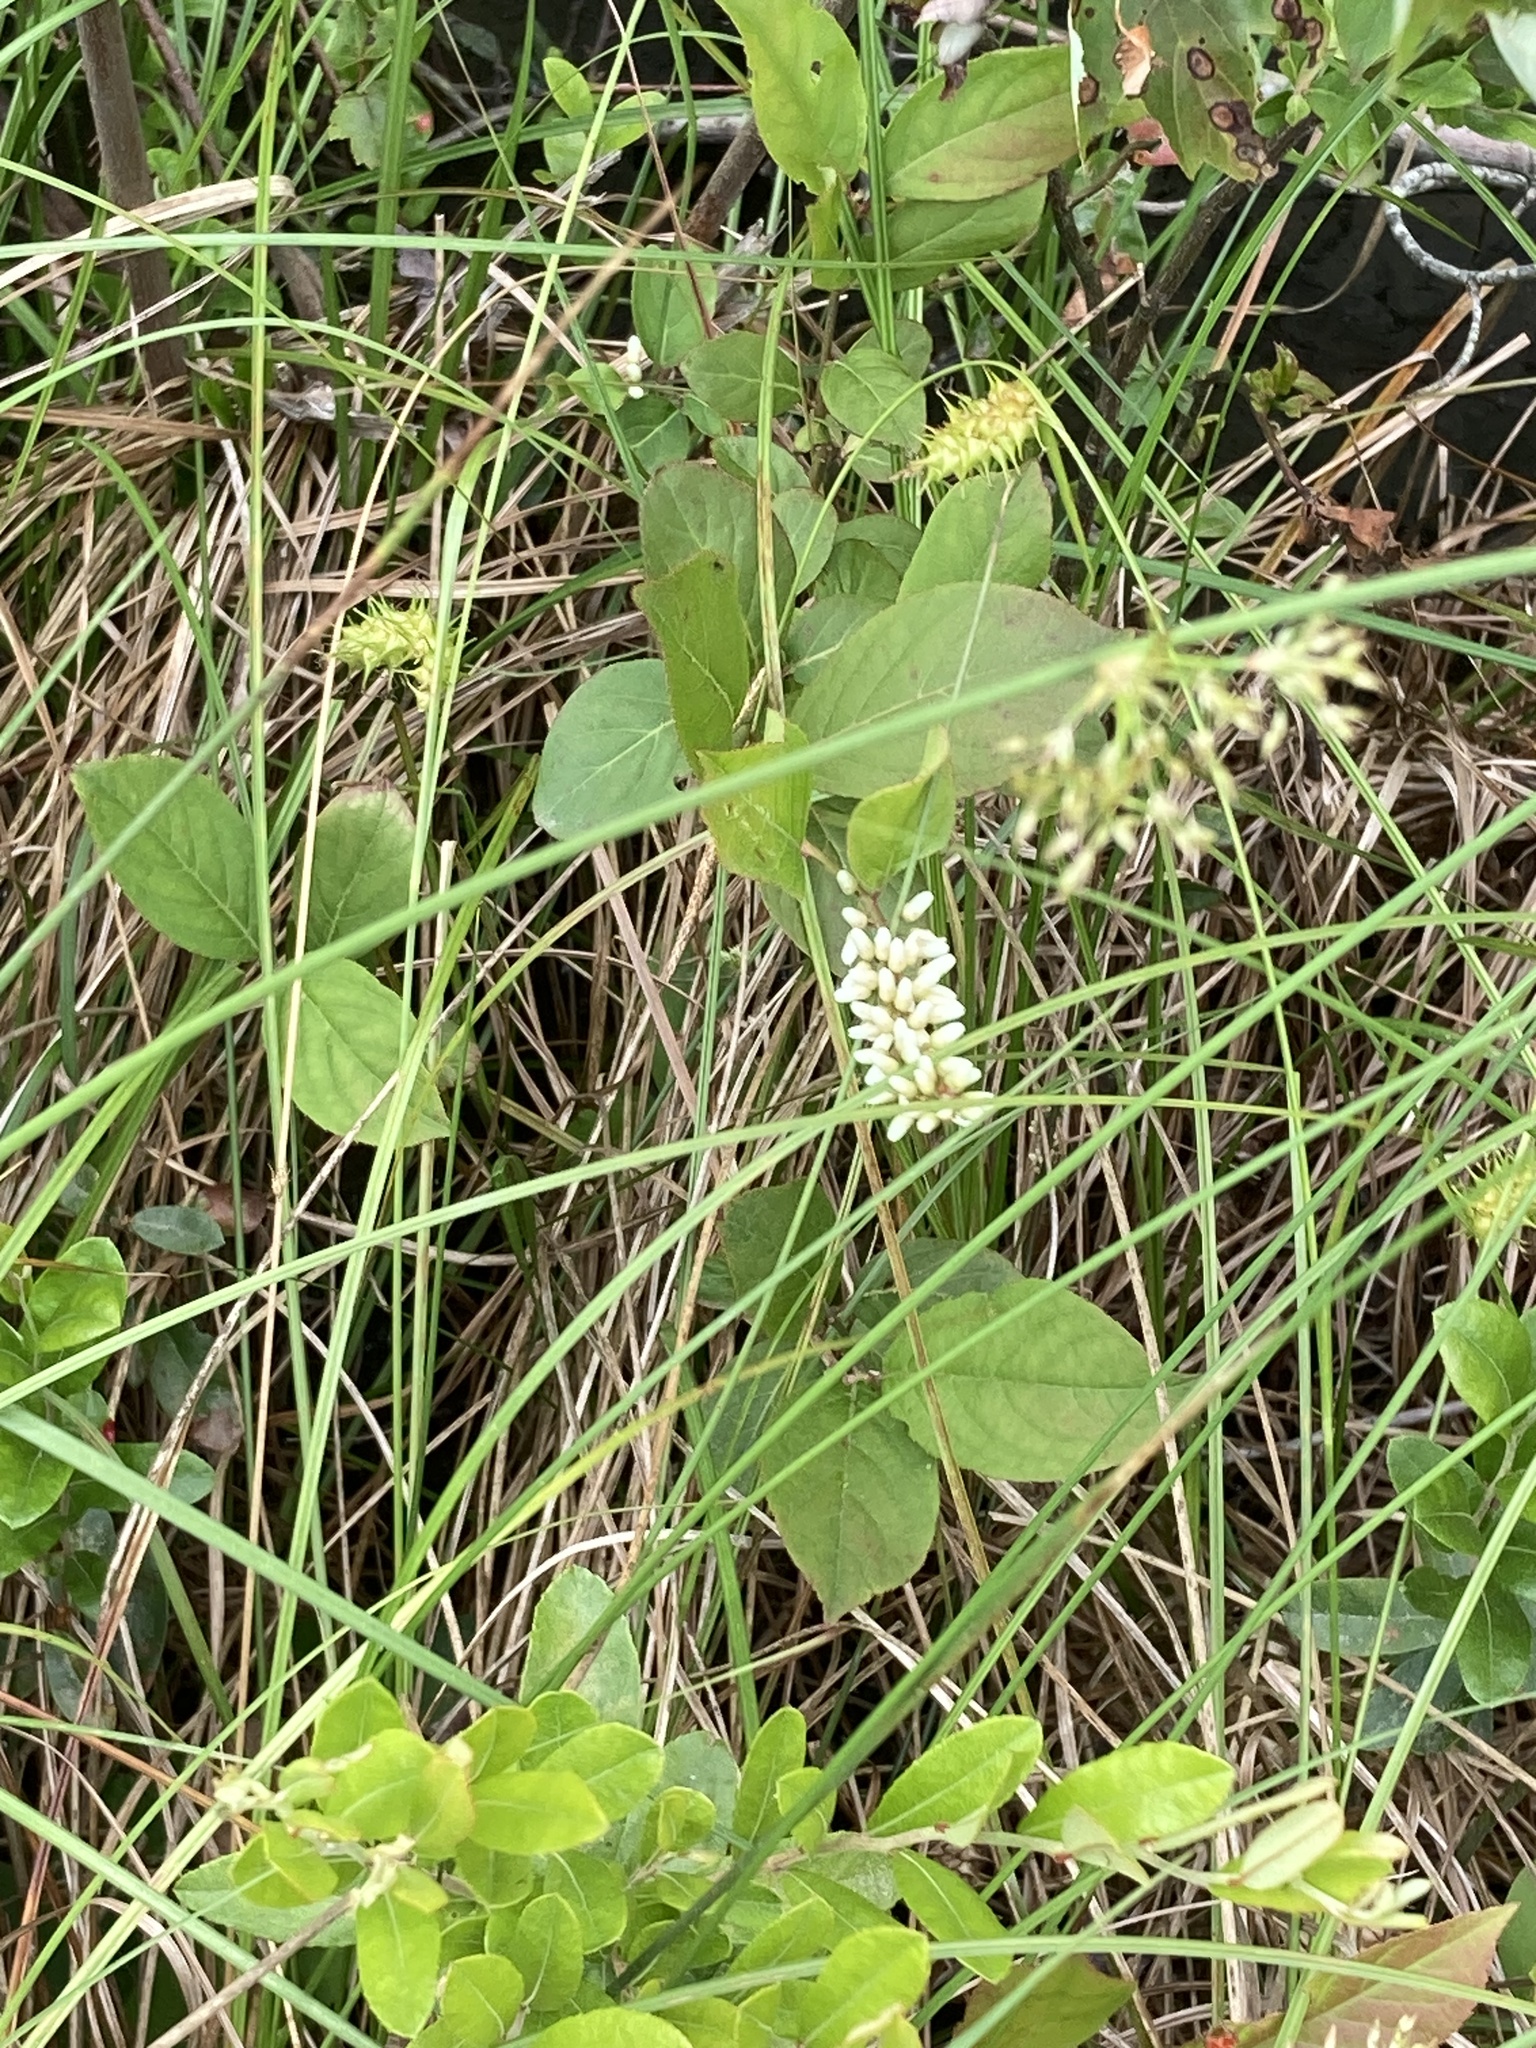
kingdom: Plantae
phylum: Tracheophyta
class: Magnoliopsida
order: Saxifragales
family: Iteaceae
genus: Itea
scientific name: Itea virginica
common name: Sweetspire
